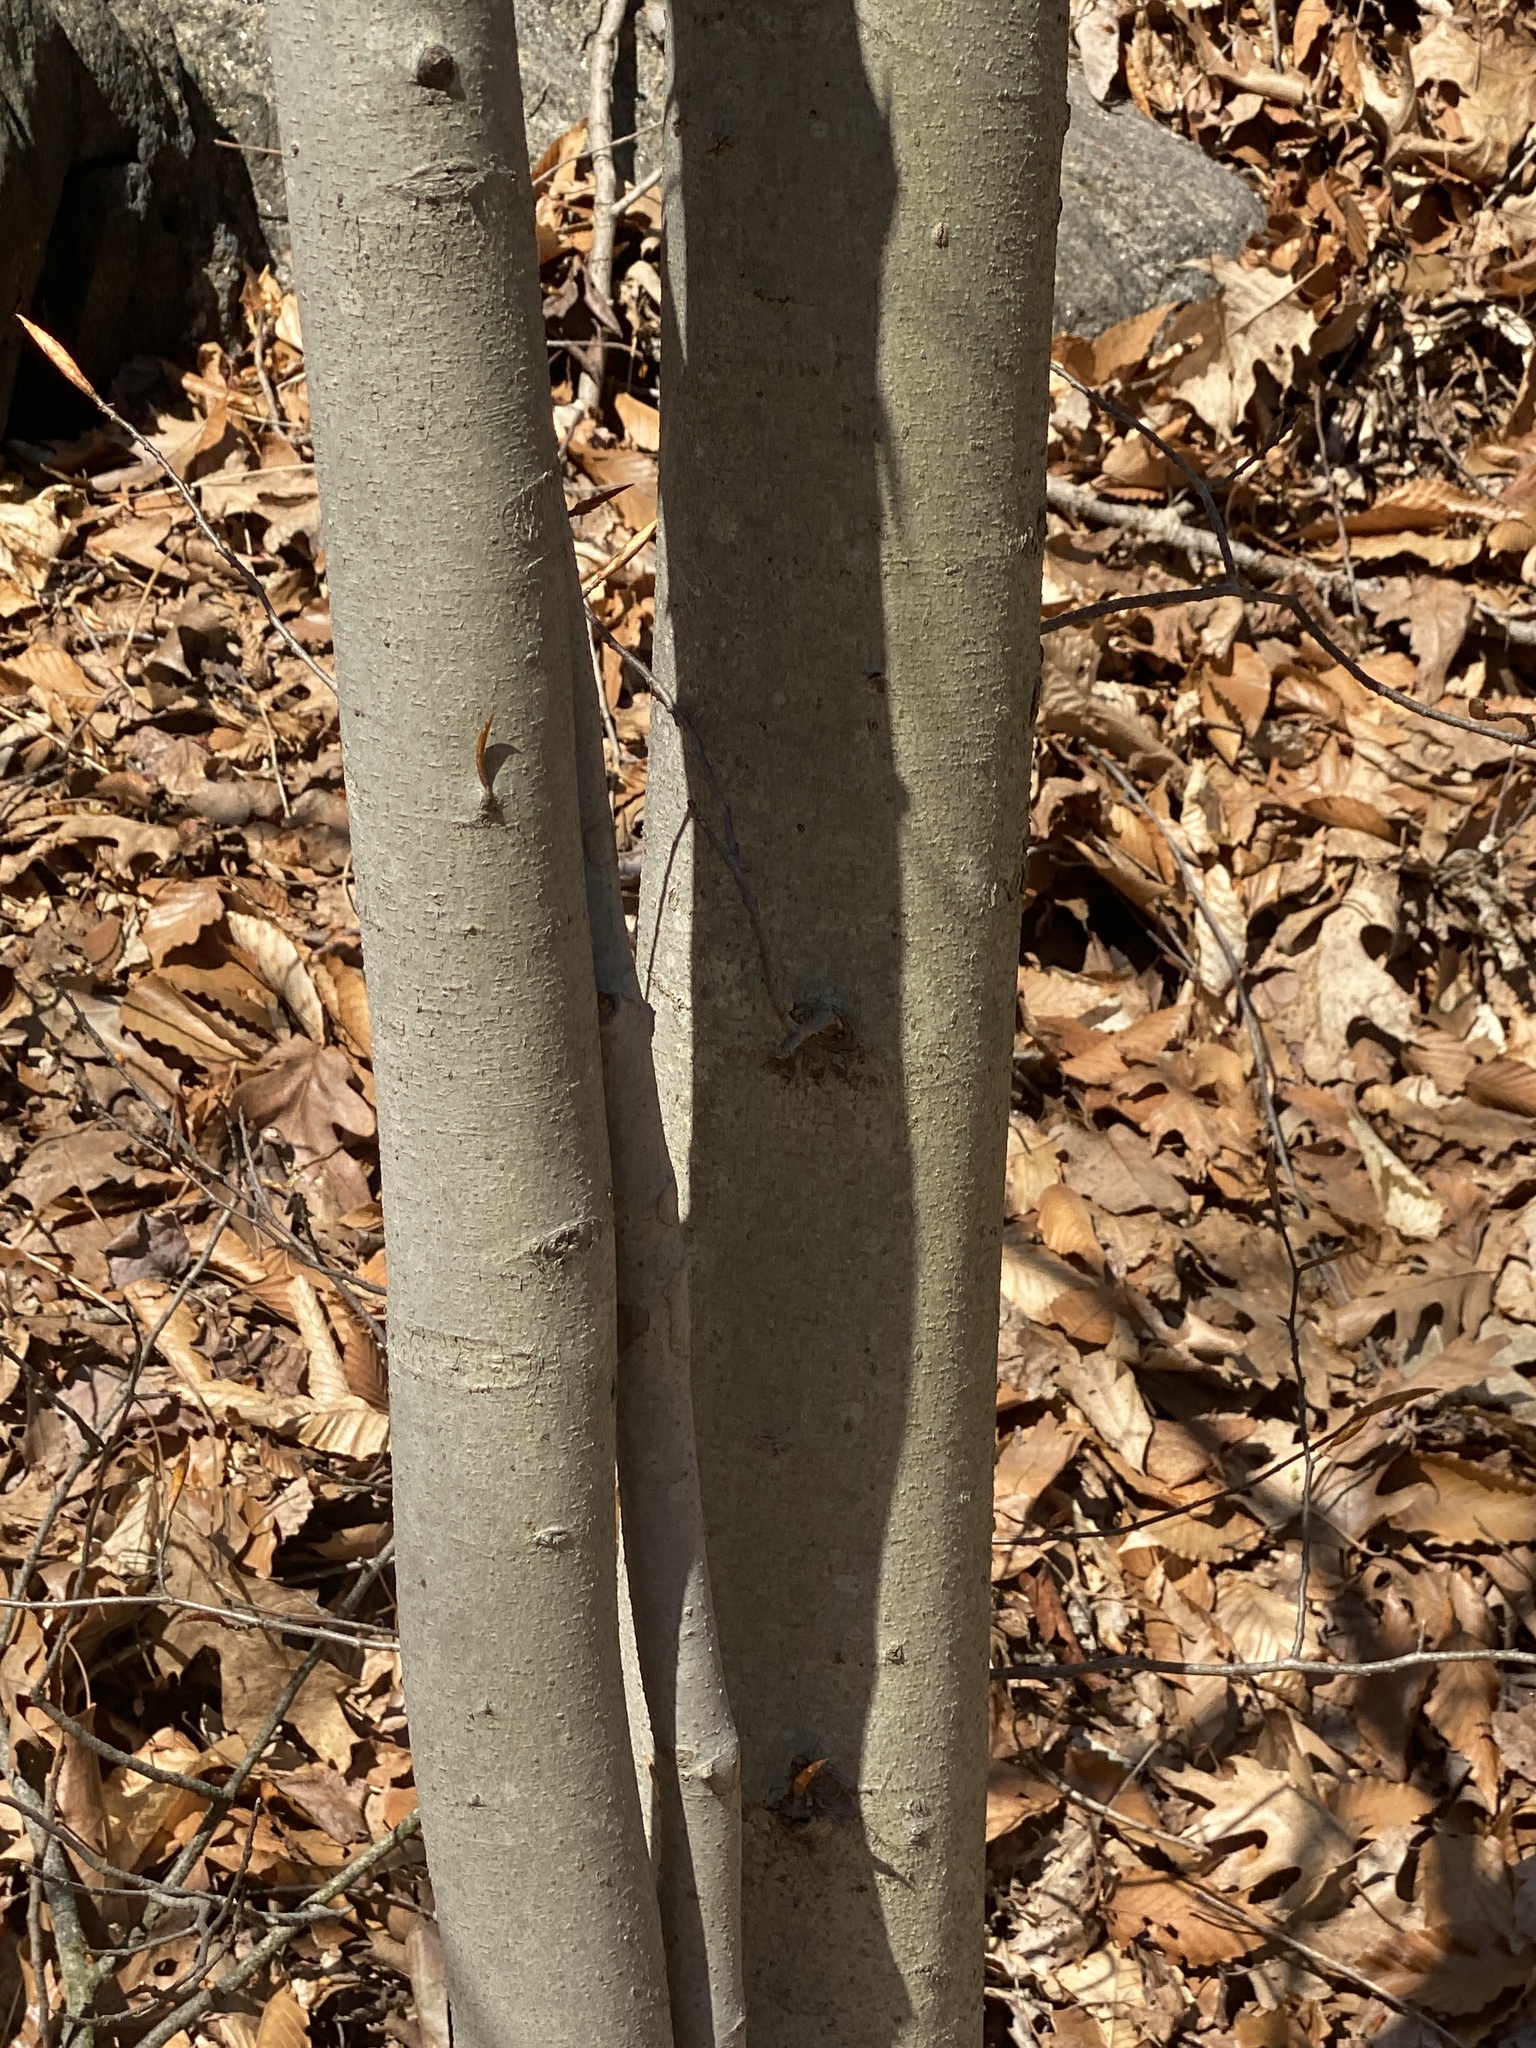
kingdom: Plantae
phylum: Tracheophyta
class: Magnoliopsida
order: Fagales
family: Fagaceae
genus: Fagus
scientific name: Fagus grandifolia
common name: American beech
